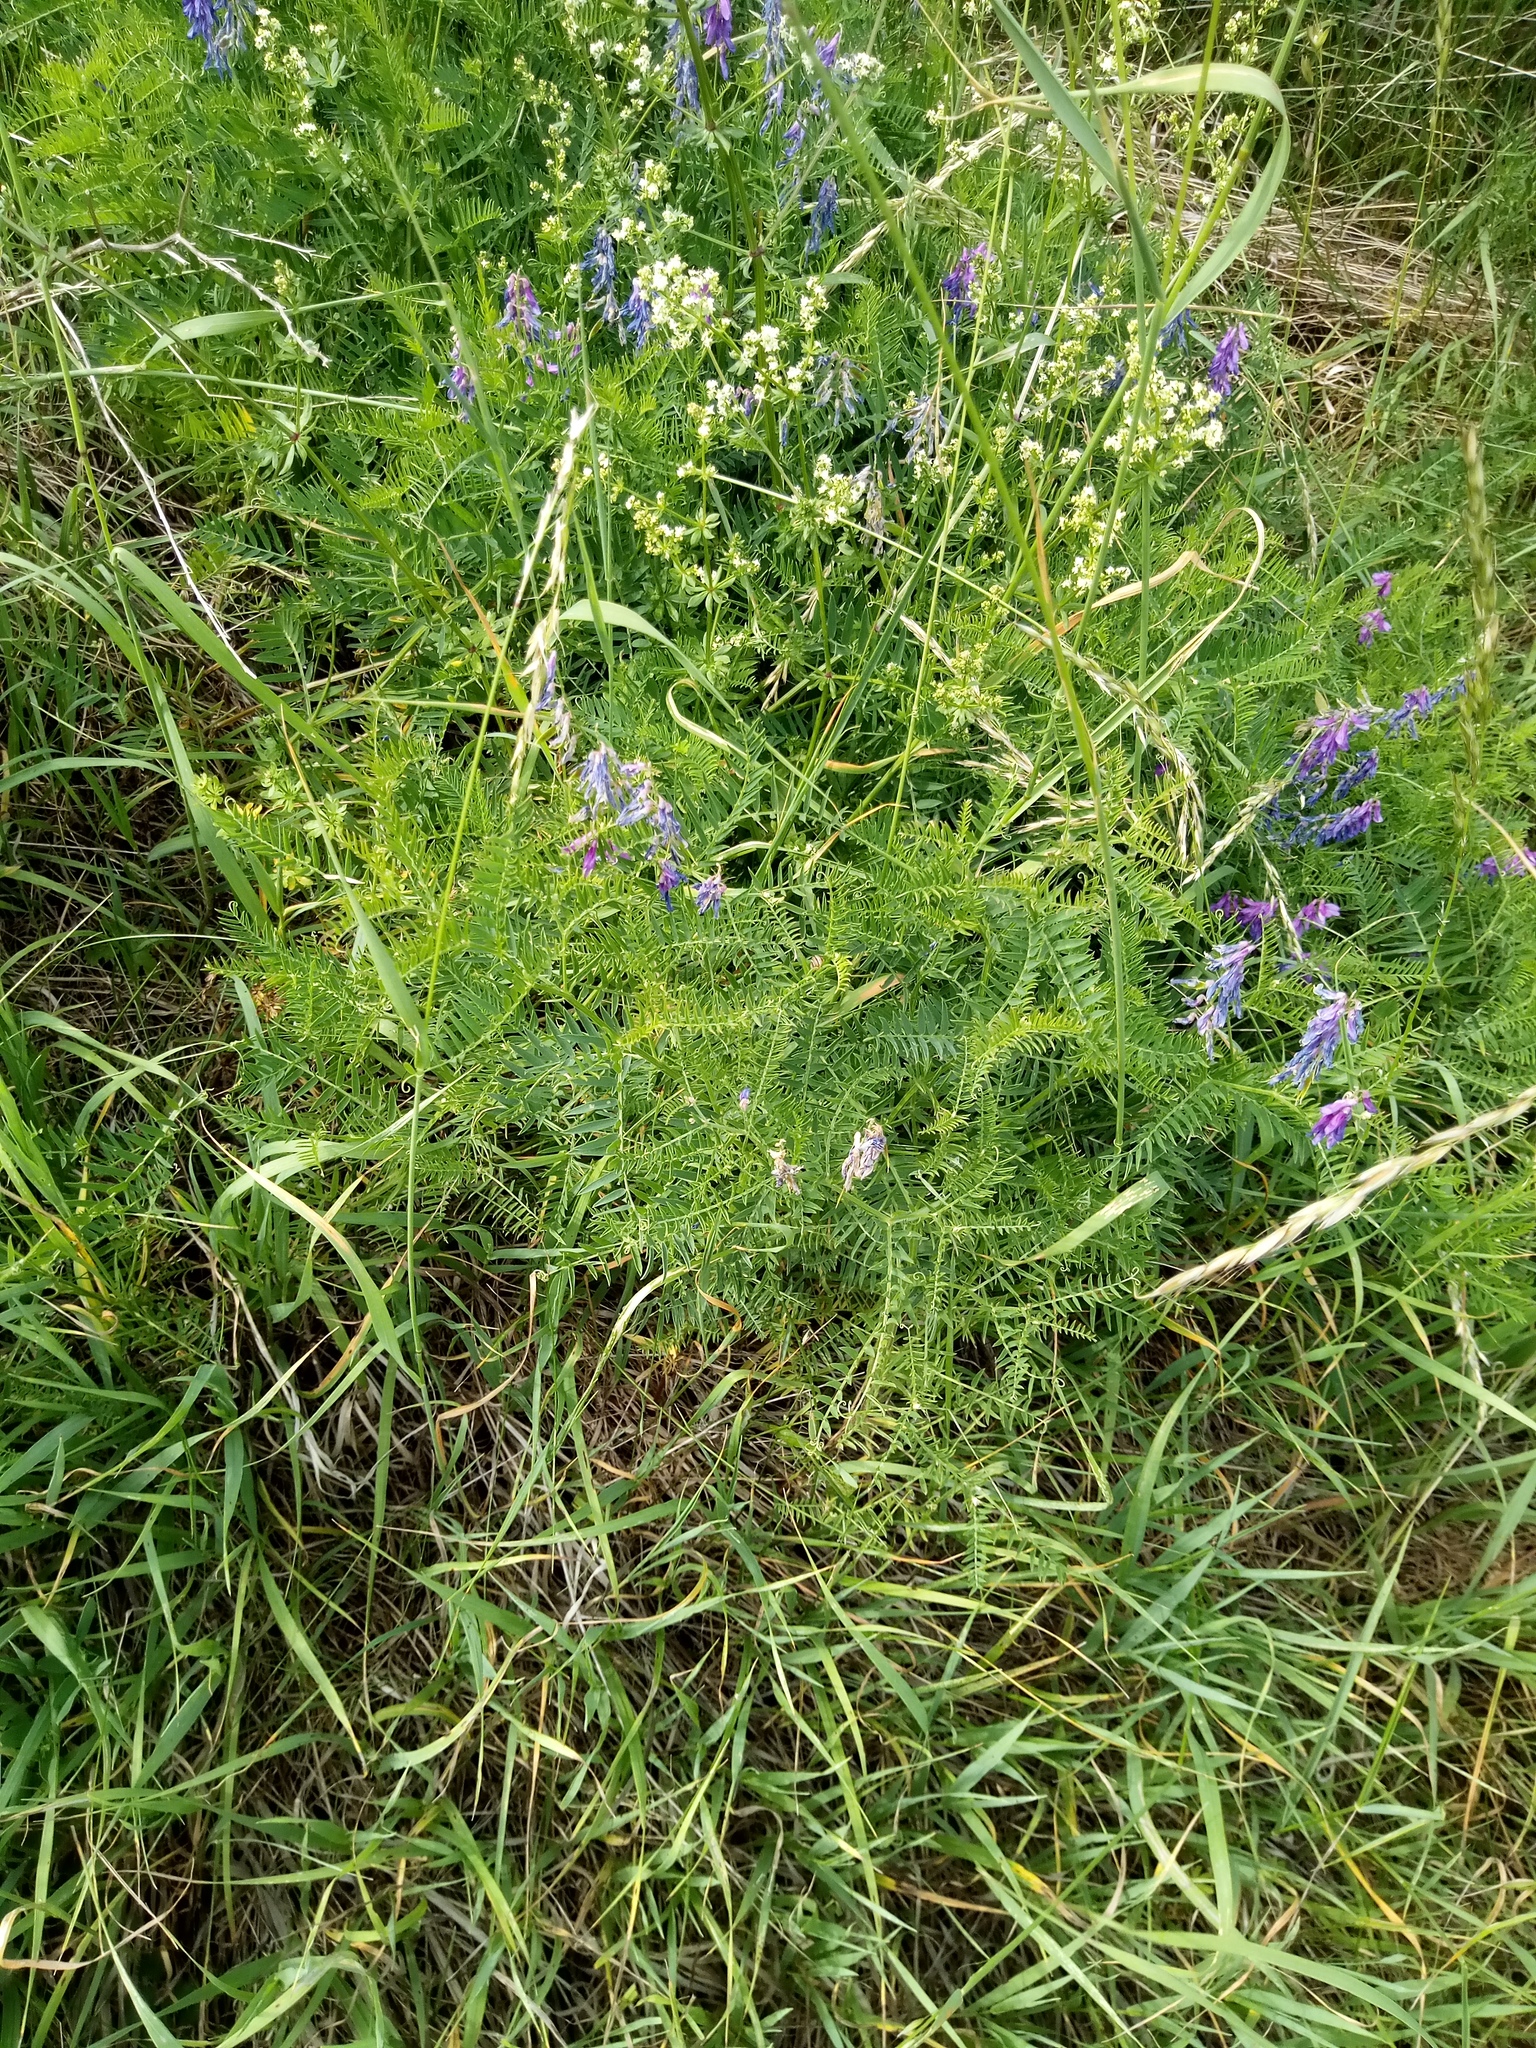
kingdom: Plantae
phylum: Tracheophyta
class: Magnoliopsida
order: Fabales
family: Fabaceae
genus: Vicia
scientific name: Vicia tenuifolia
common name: Fine-leaved vetch
